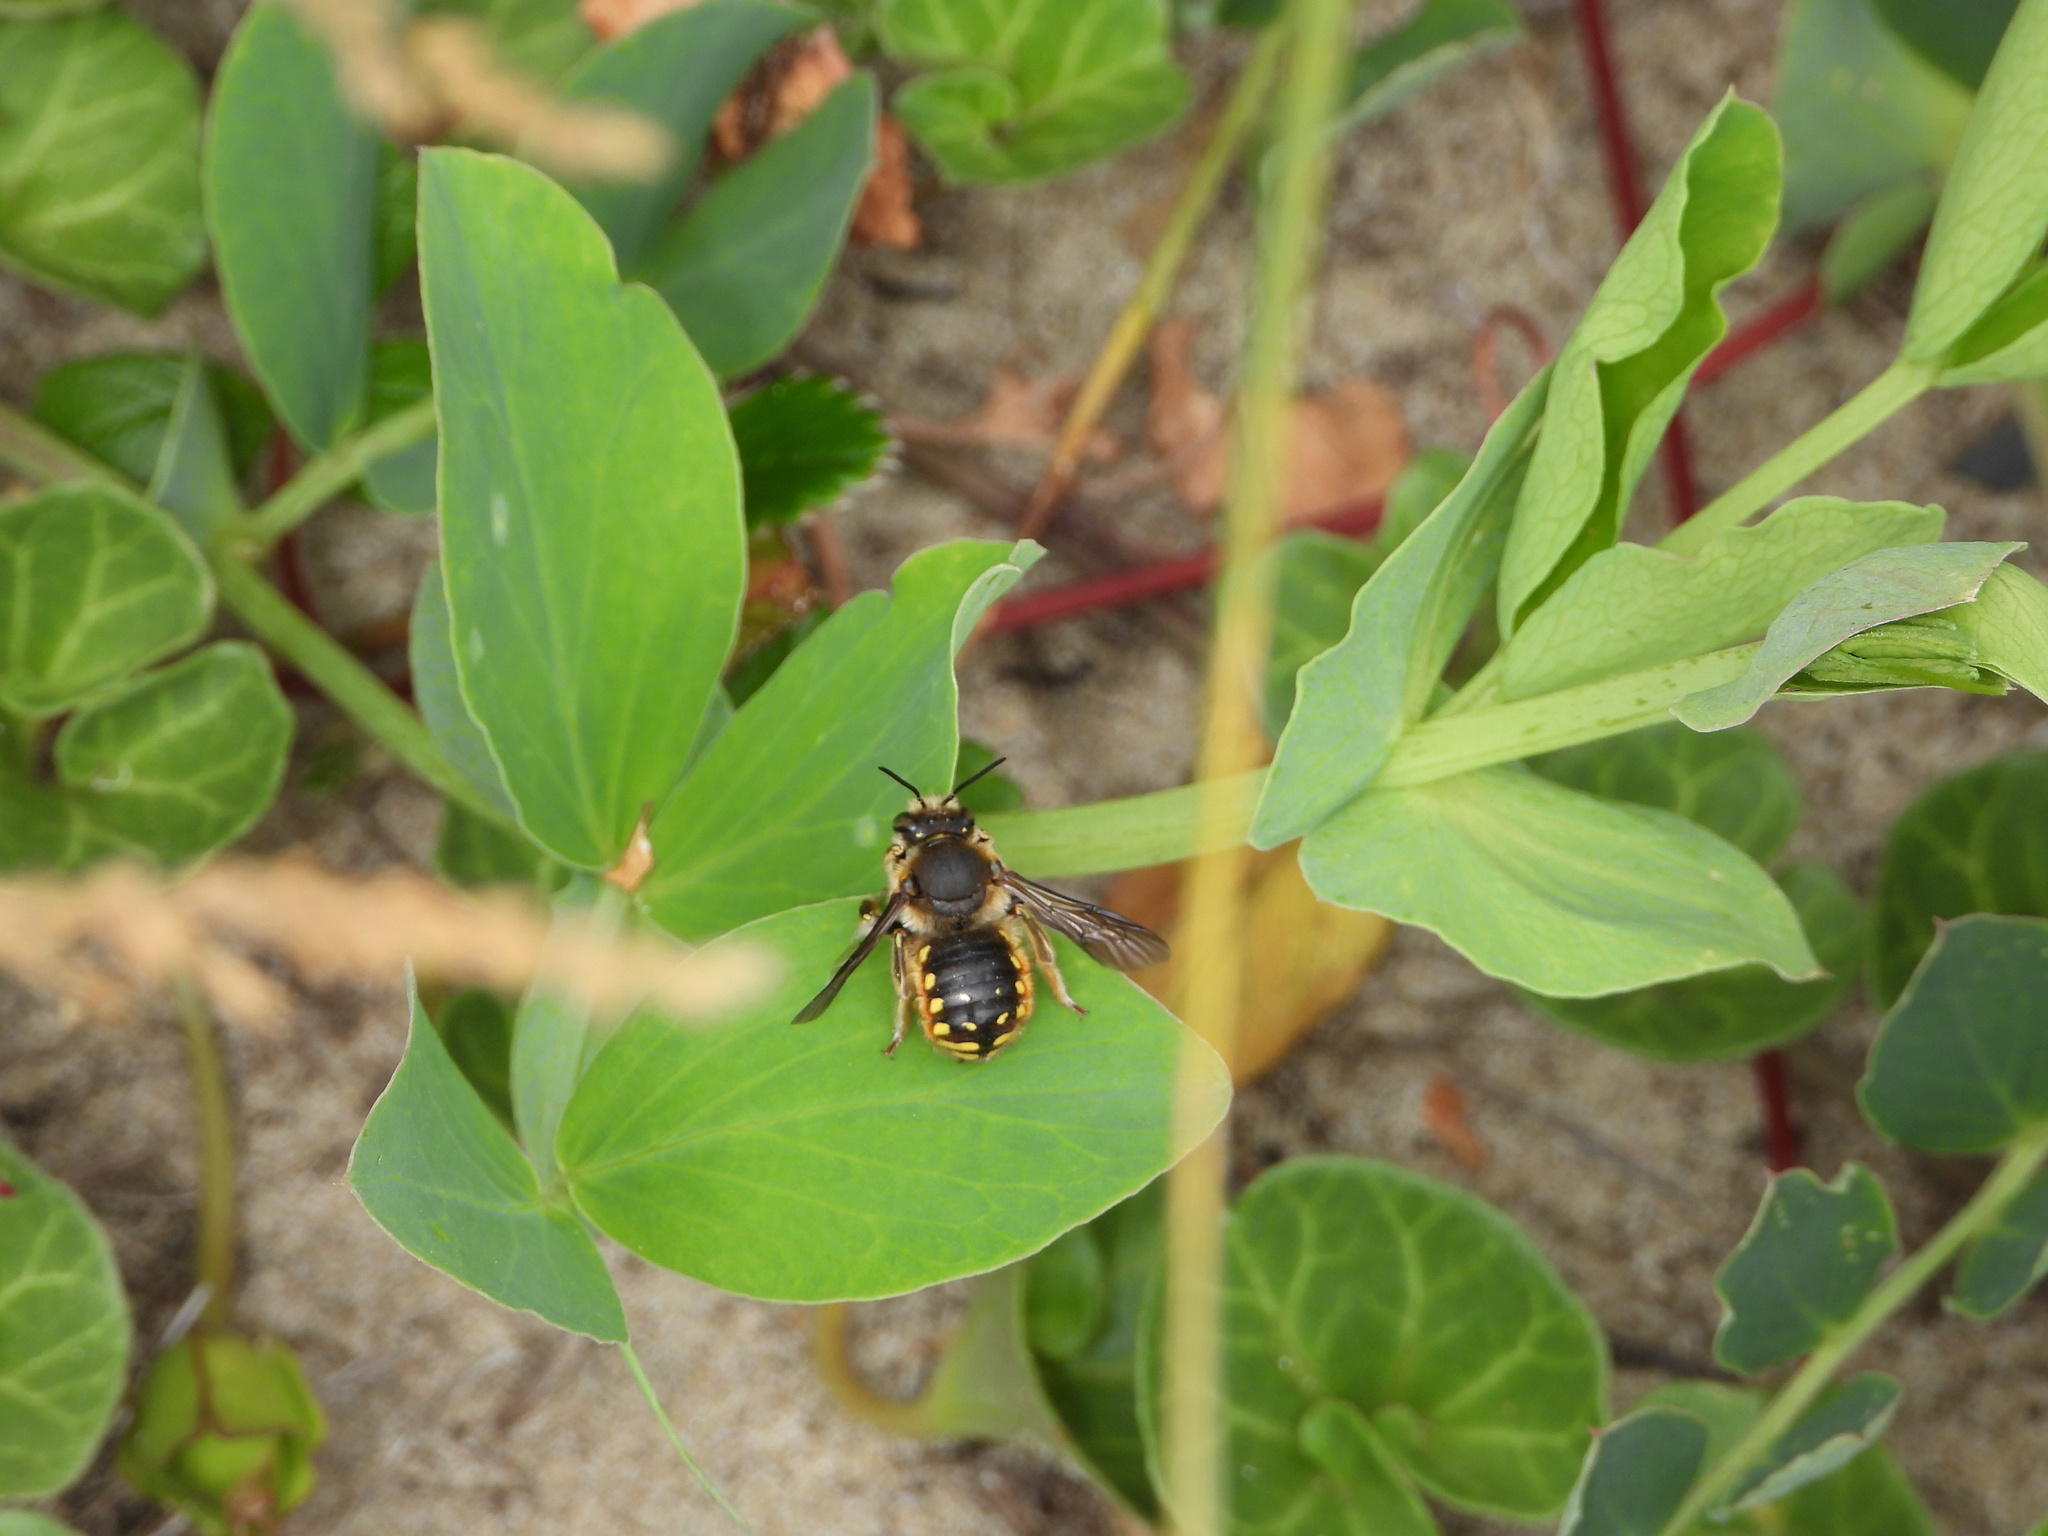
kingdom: Animalia
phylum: Arthropoda
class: Insecta
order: Hymenoptera
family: Megachilidae
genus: Anthidium
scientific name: Anthidium manicatum
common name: Wool carder bee
